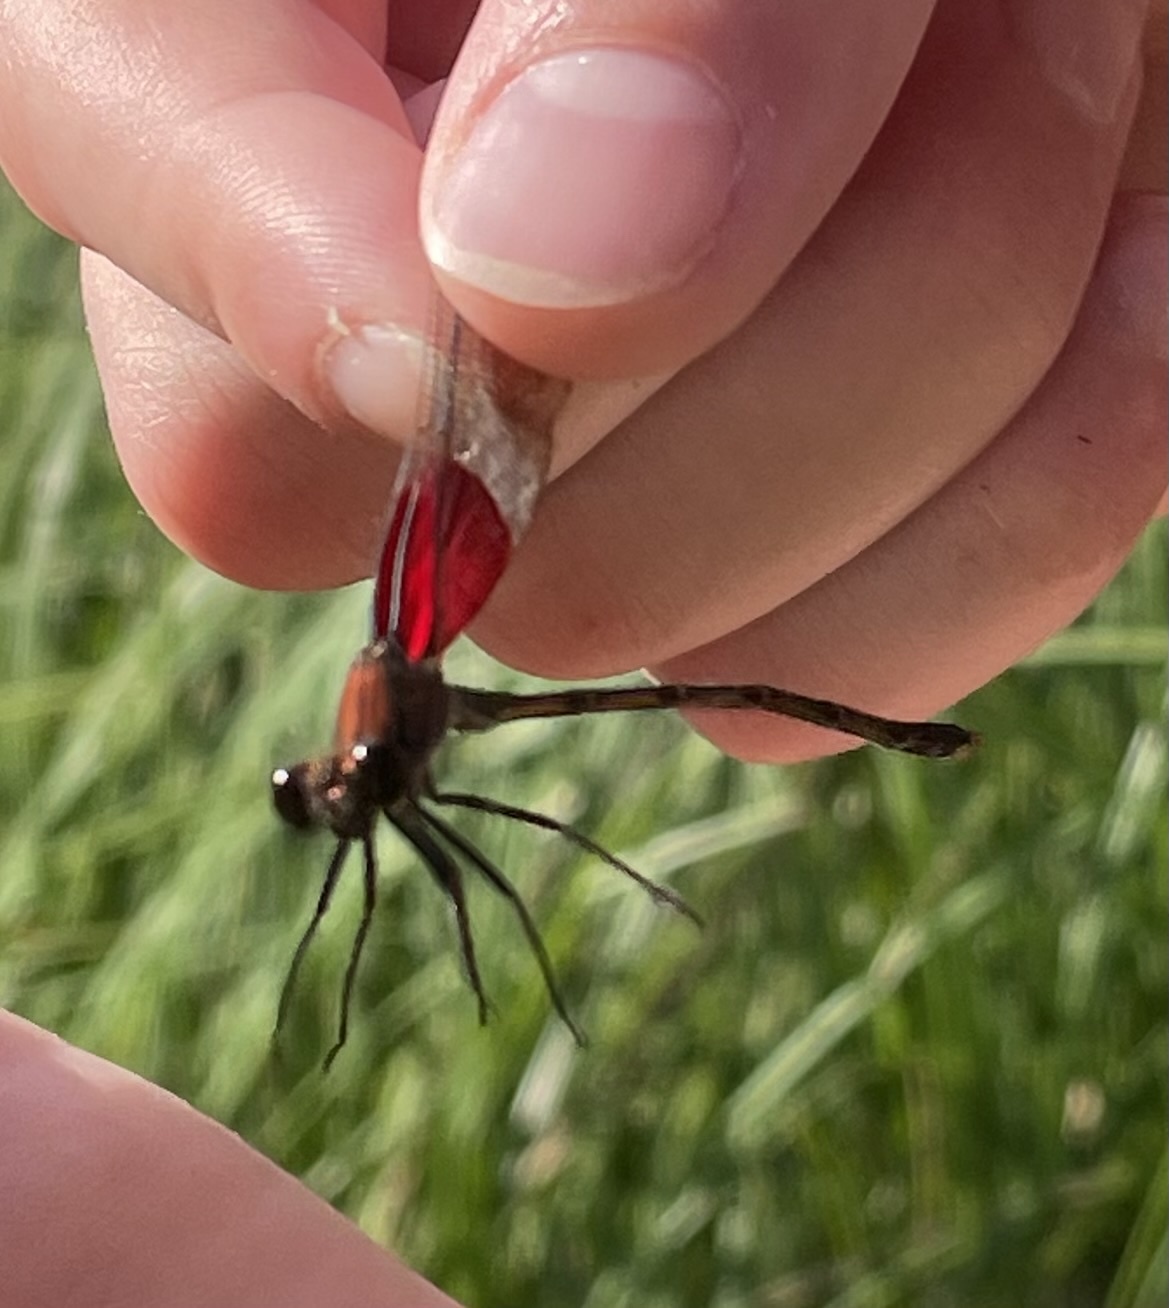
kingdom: Animalia
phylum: Arthropoda
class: Insecta
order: Odonata
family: Calopterygidae
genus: Hetaerina
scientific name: Hetaerina americana
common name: American rubyspot
